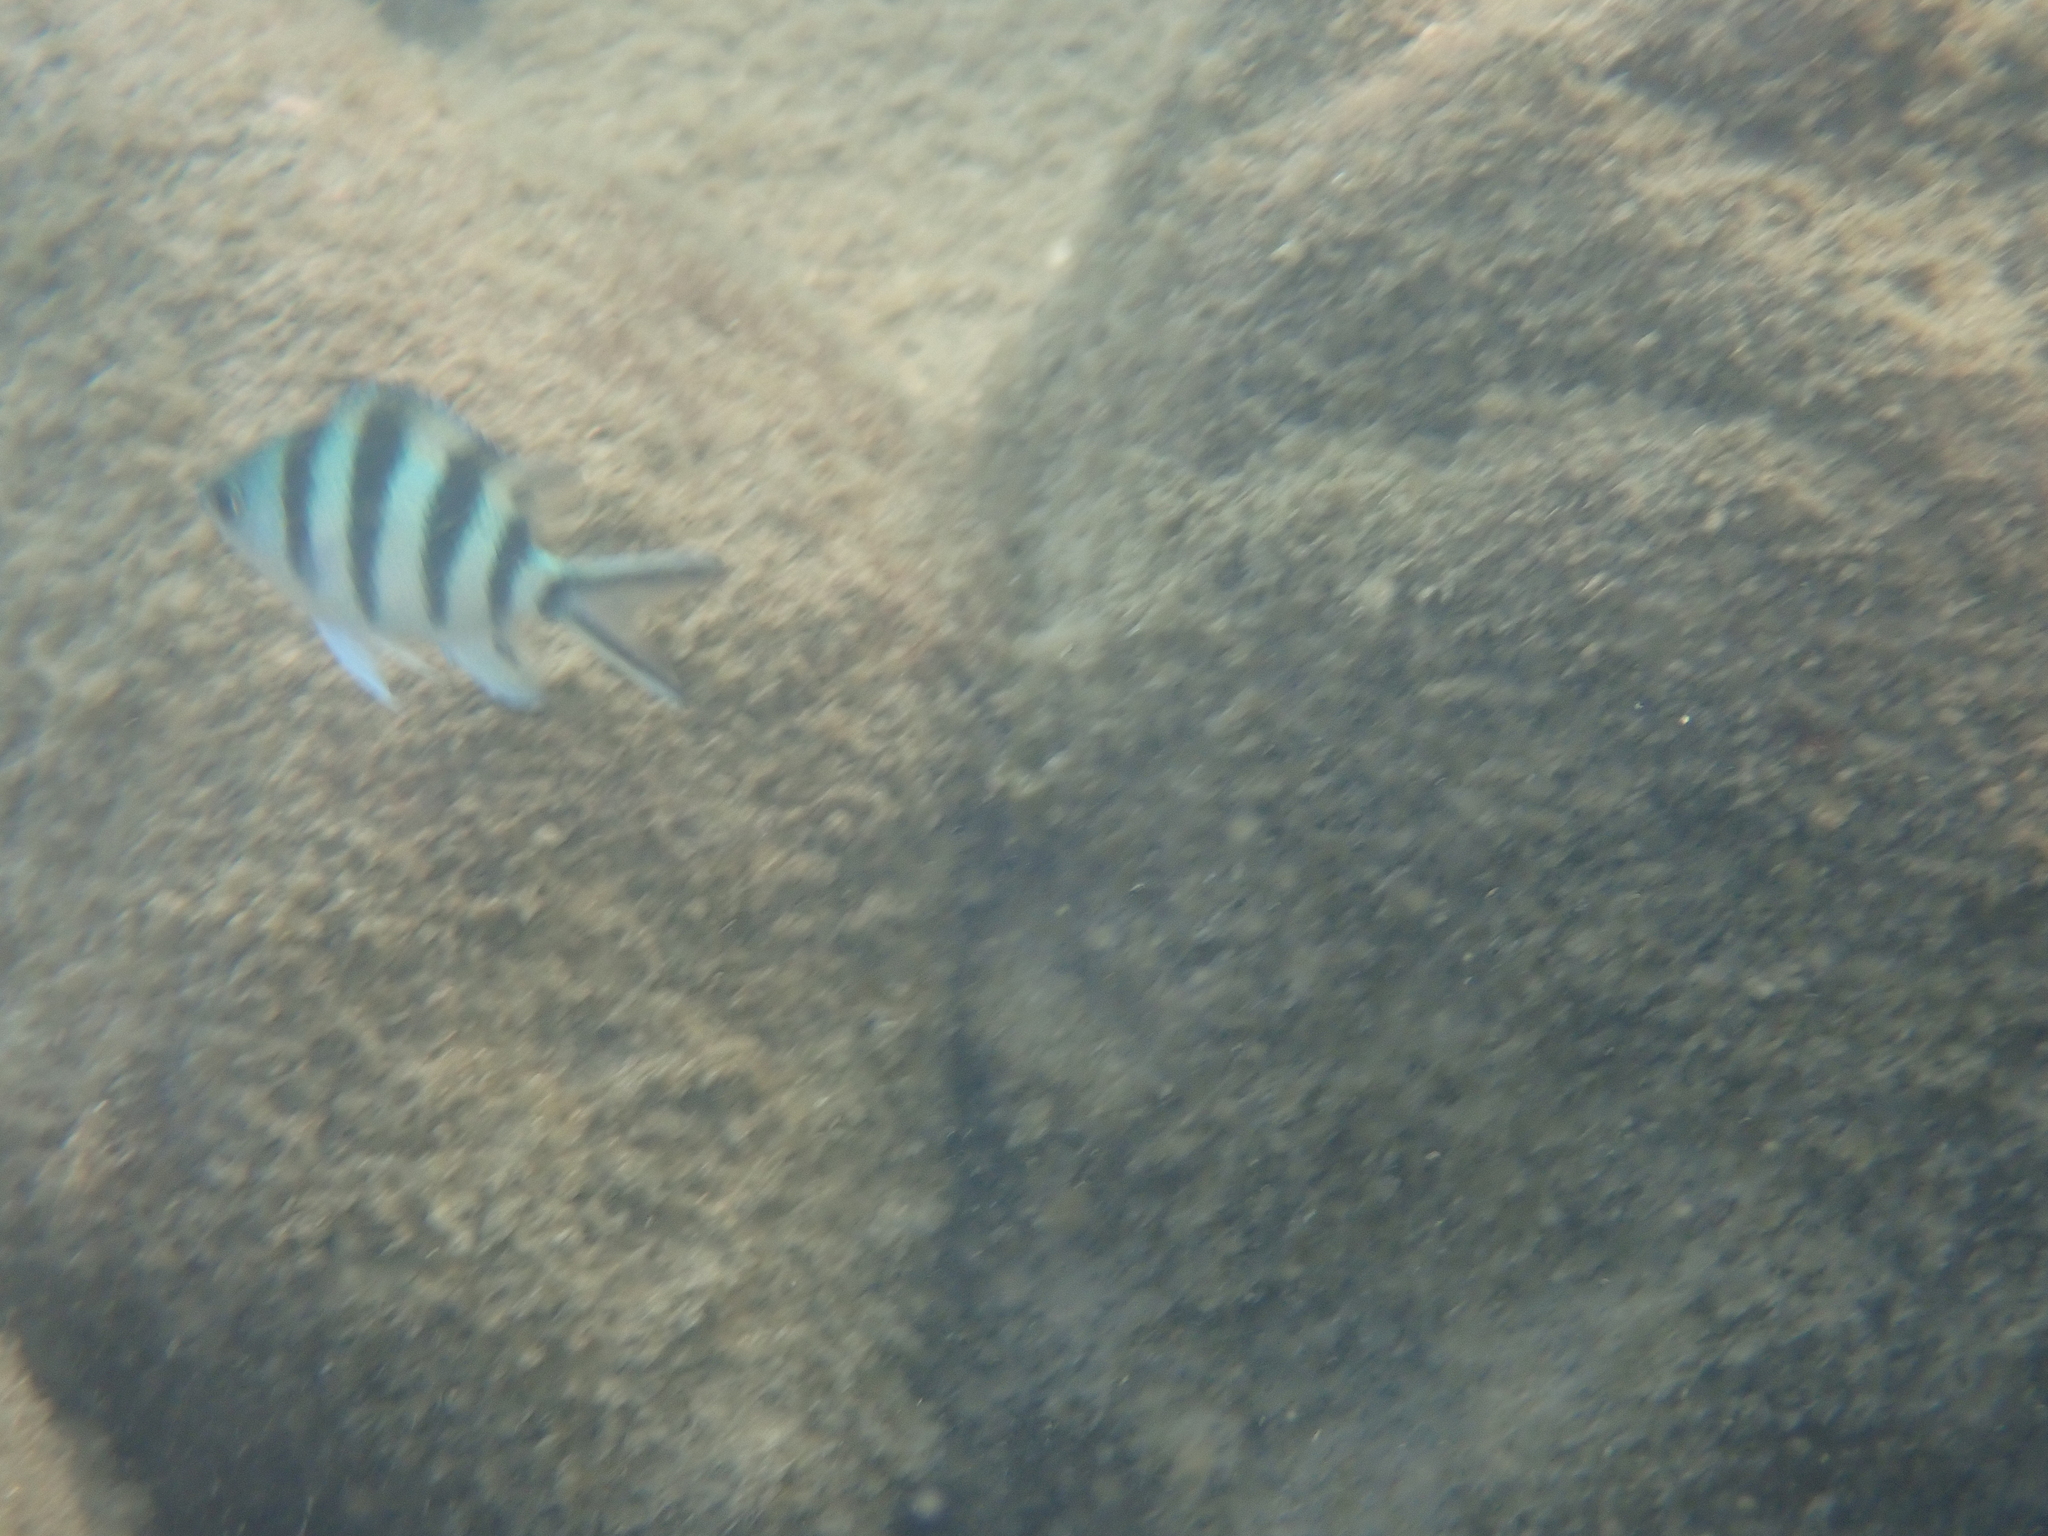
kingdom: Animalia
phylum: Chordata
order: Perciformes
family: Pomacentridae
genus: Abudefduf
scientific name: Abudefduf sexfasciatus
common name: Scissortail sergeant
